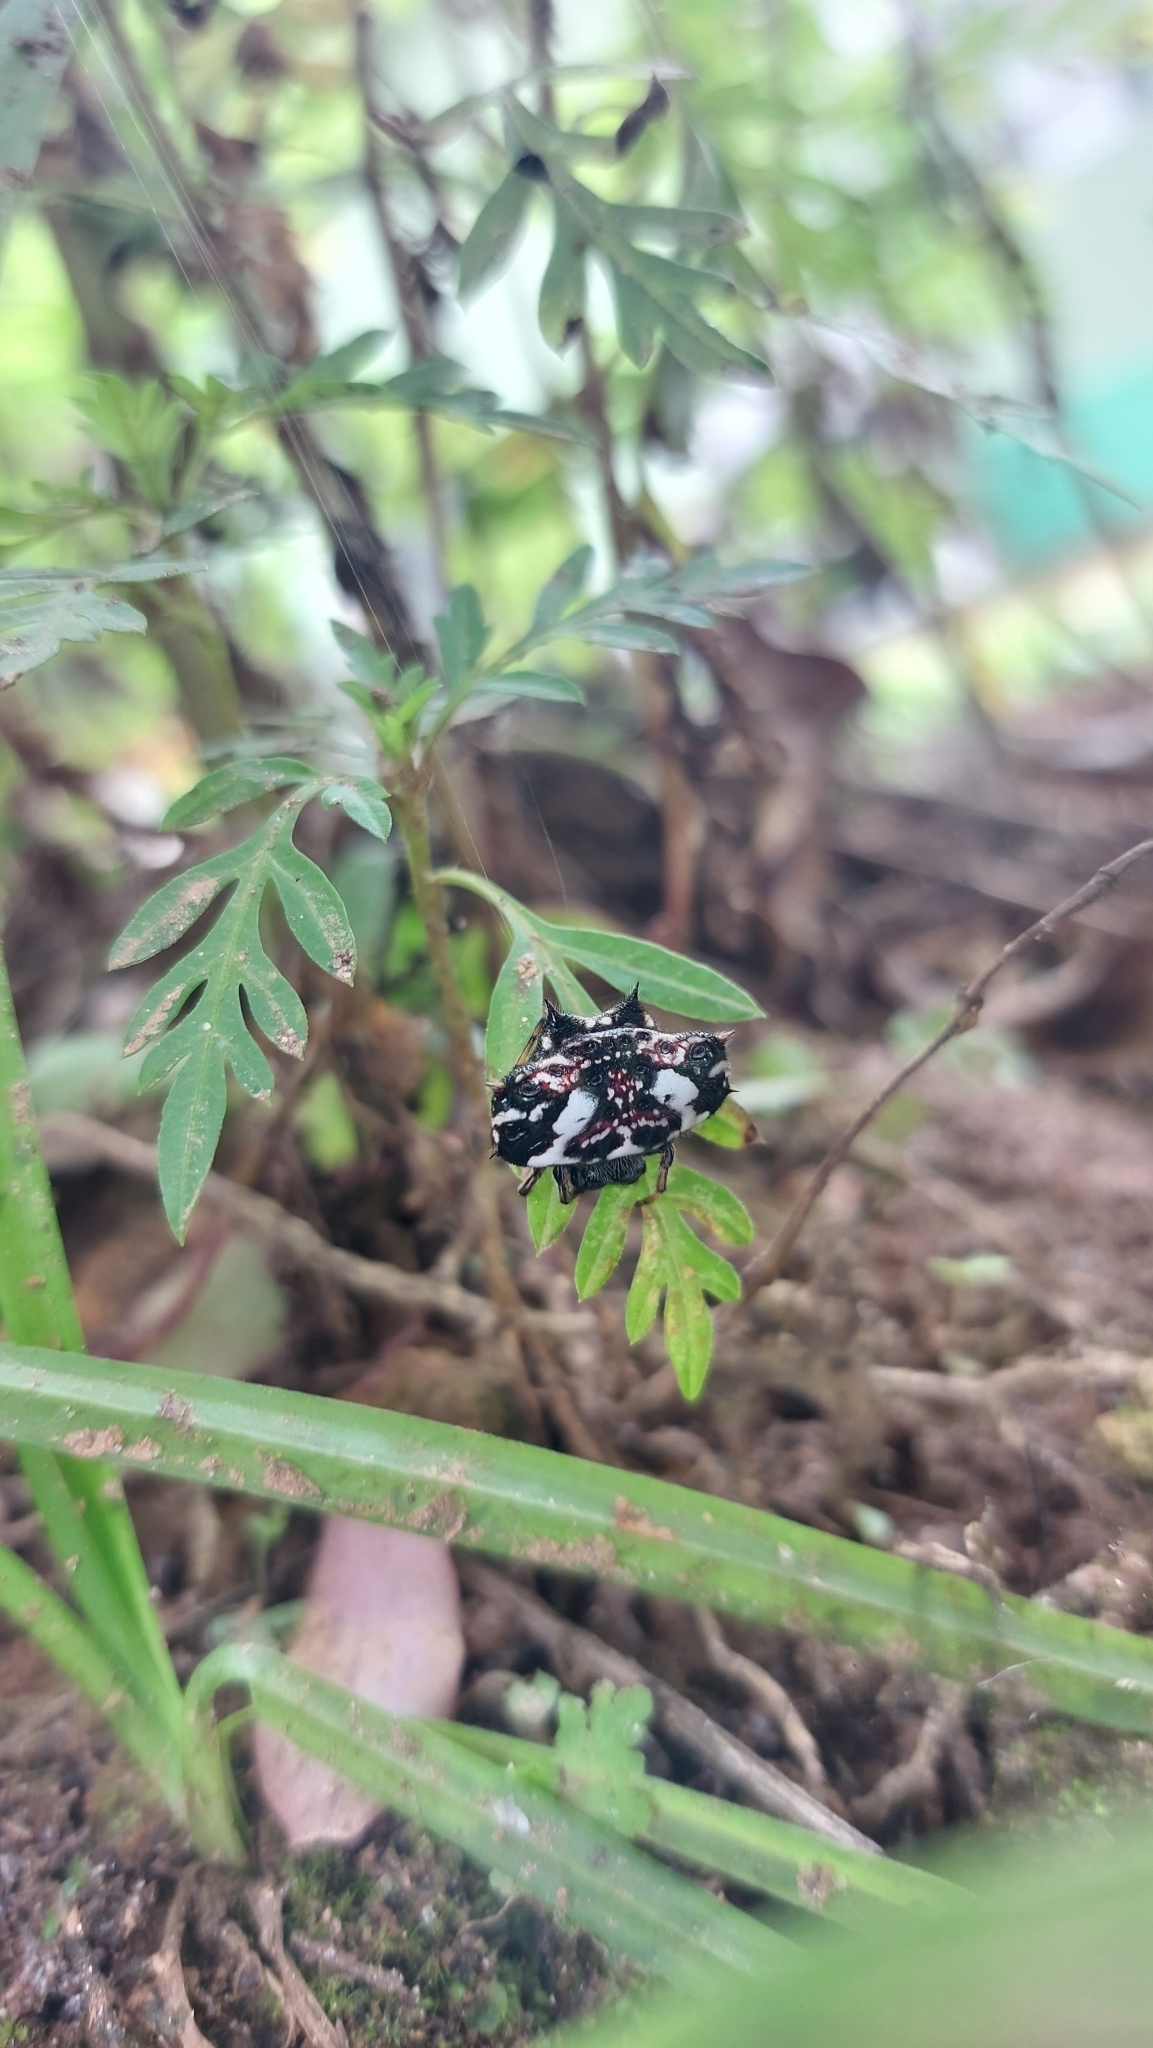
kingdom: Animalia
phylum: Arthropoda
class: Arachnida
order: Araneae
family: Araneidae
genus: Gasteracantha
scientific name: Gasteracantha cancriformis
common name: Orb weavers
